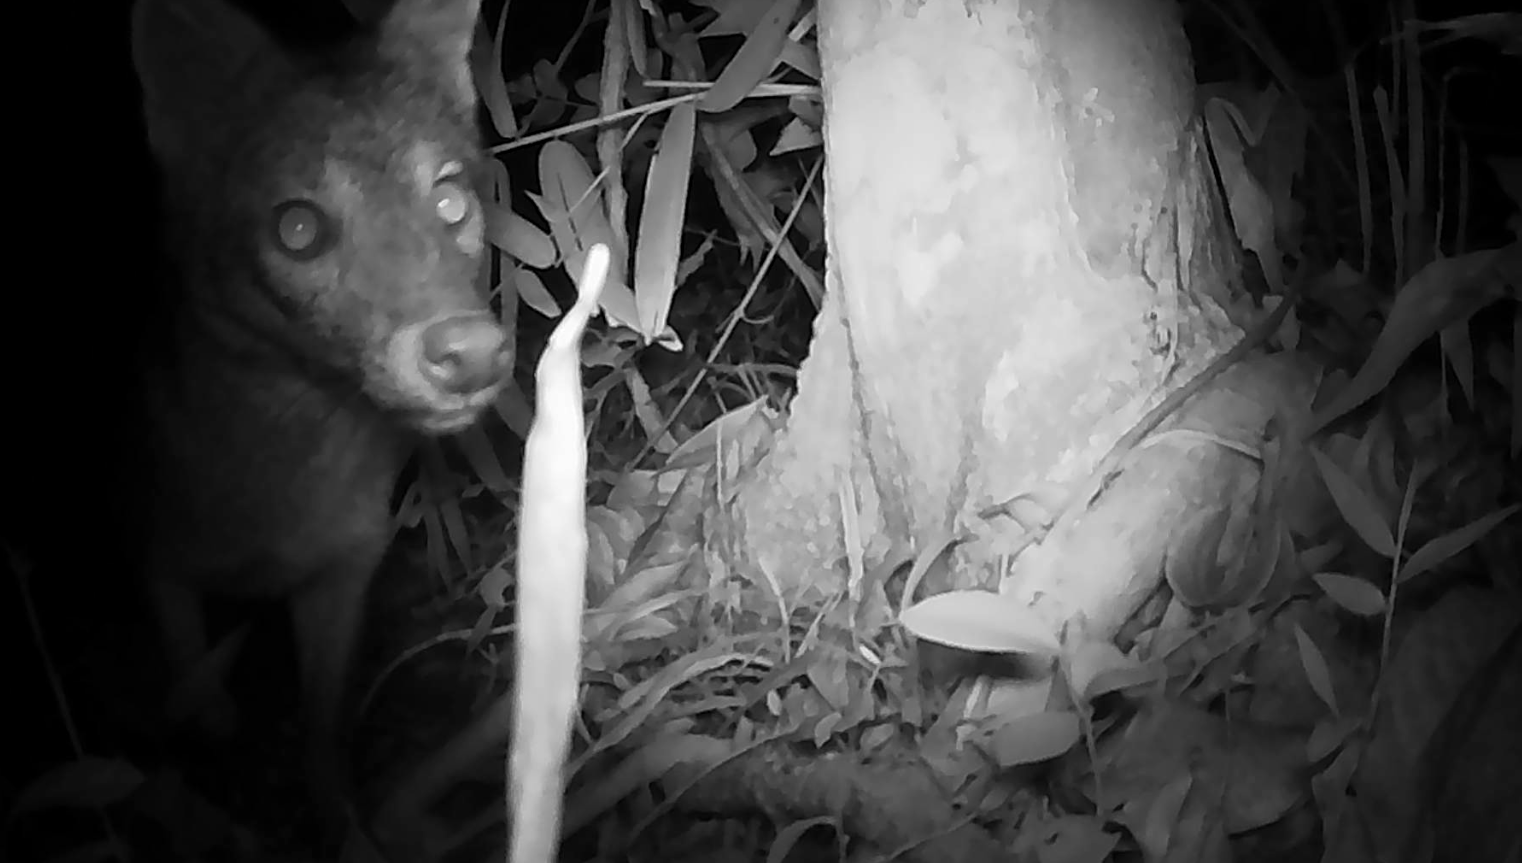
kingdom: Animalia
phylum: Chordata
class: Mammalia
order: Carnivora
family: Canidae
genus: Cerdocyon
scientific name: Cerdocyon thous
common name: Crab-eating fox
